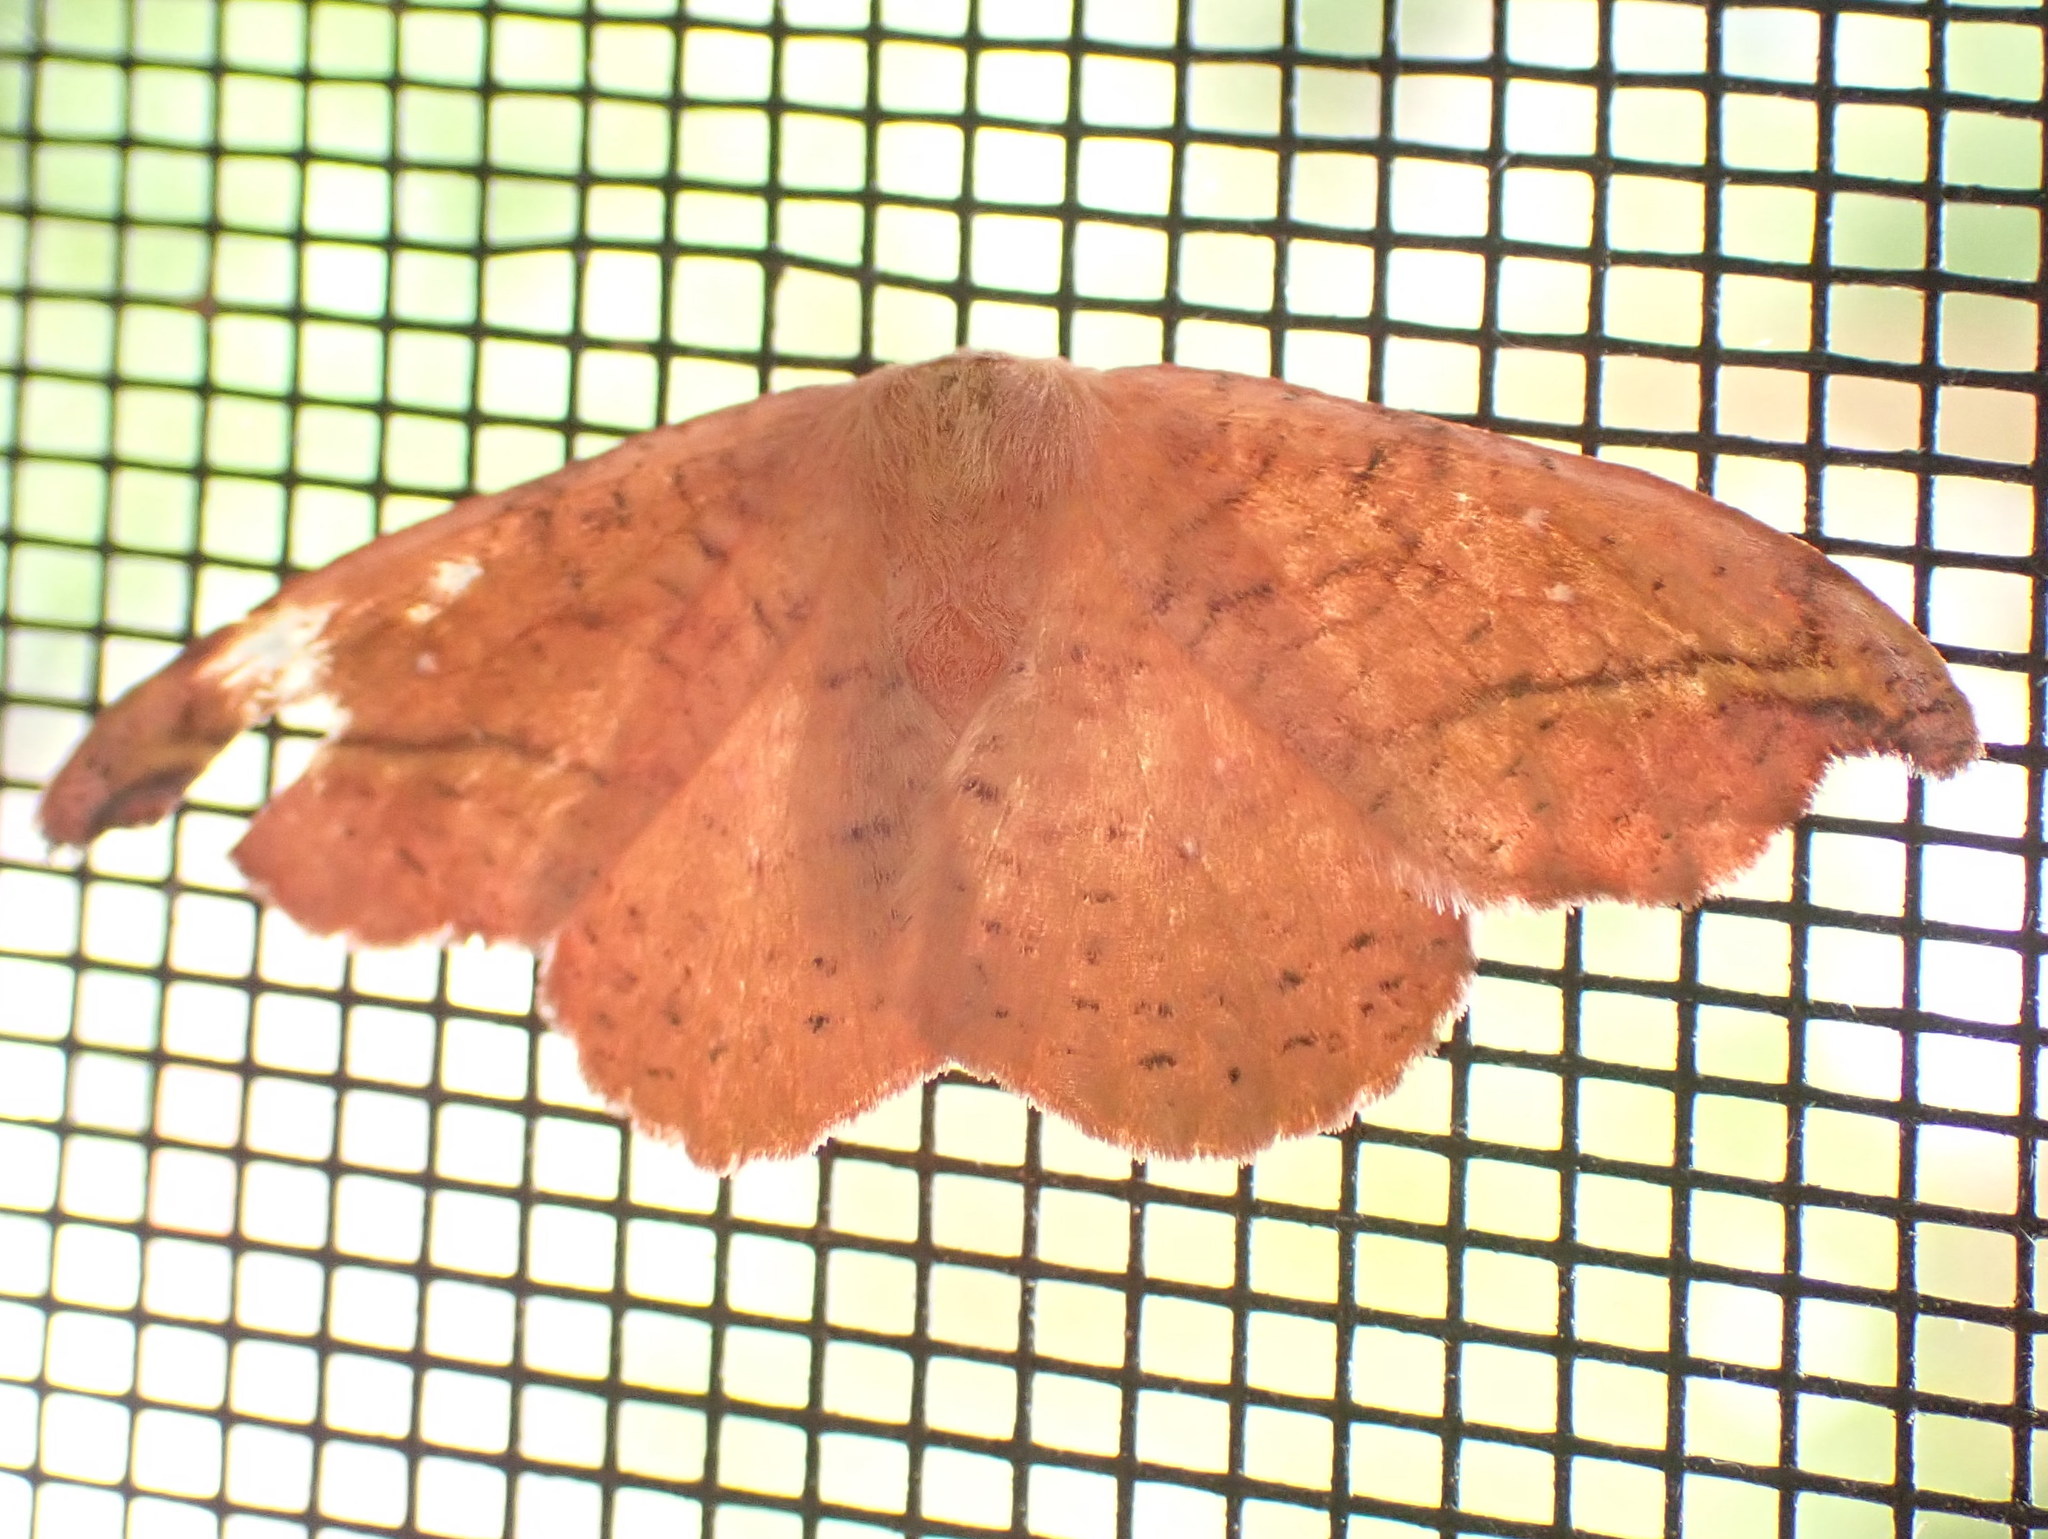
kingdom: Animalia
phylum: Arthropoda
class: Insecta
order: Lepidoptera
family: Drepanidae
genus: Oreta
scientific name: Oreta rosea
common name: Rose hooktip
